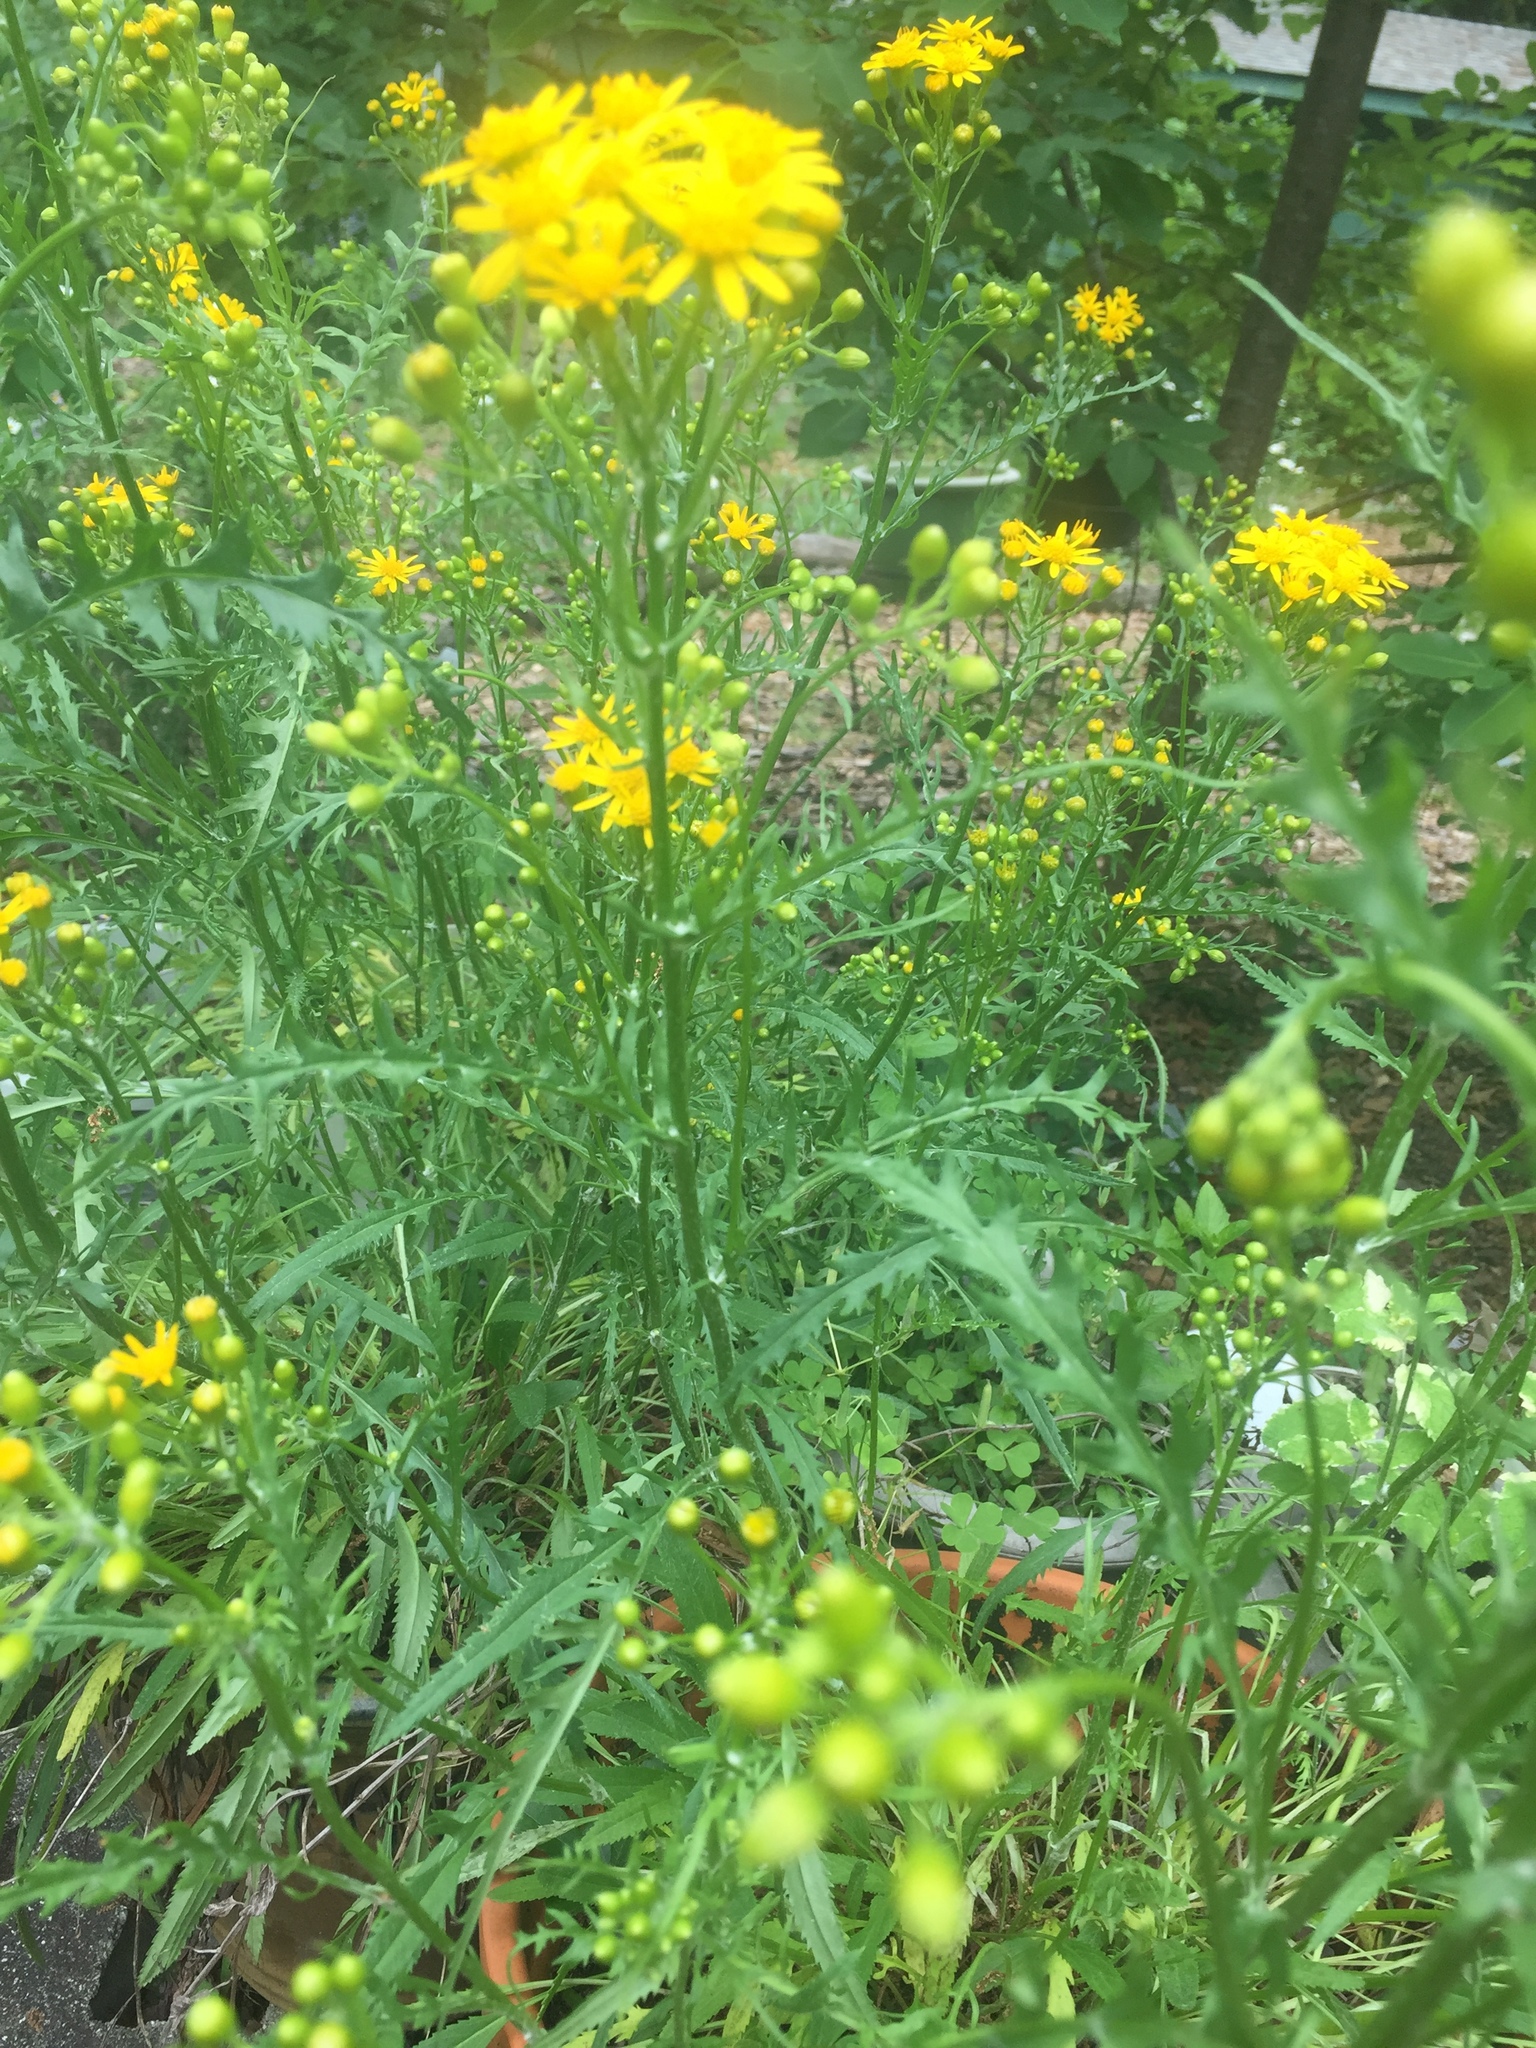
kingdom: Plantae
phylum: Tracheophyta
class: Magnoliopsida
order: Asterales
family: Asteraceae
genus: Packera
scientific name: Packera anonyma
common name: Small ragwort
